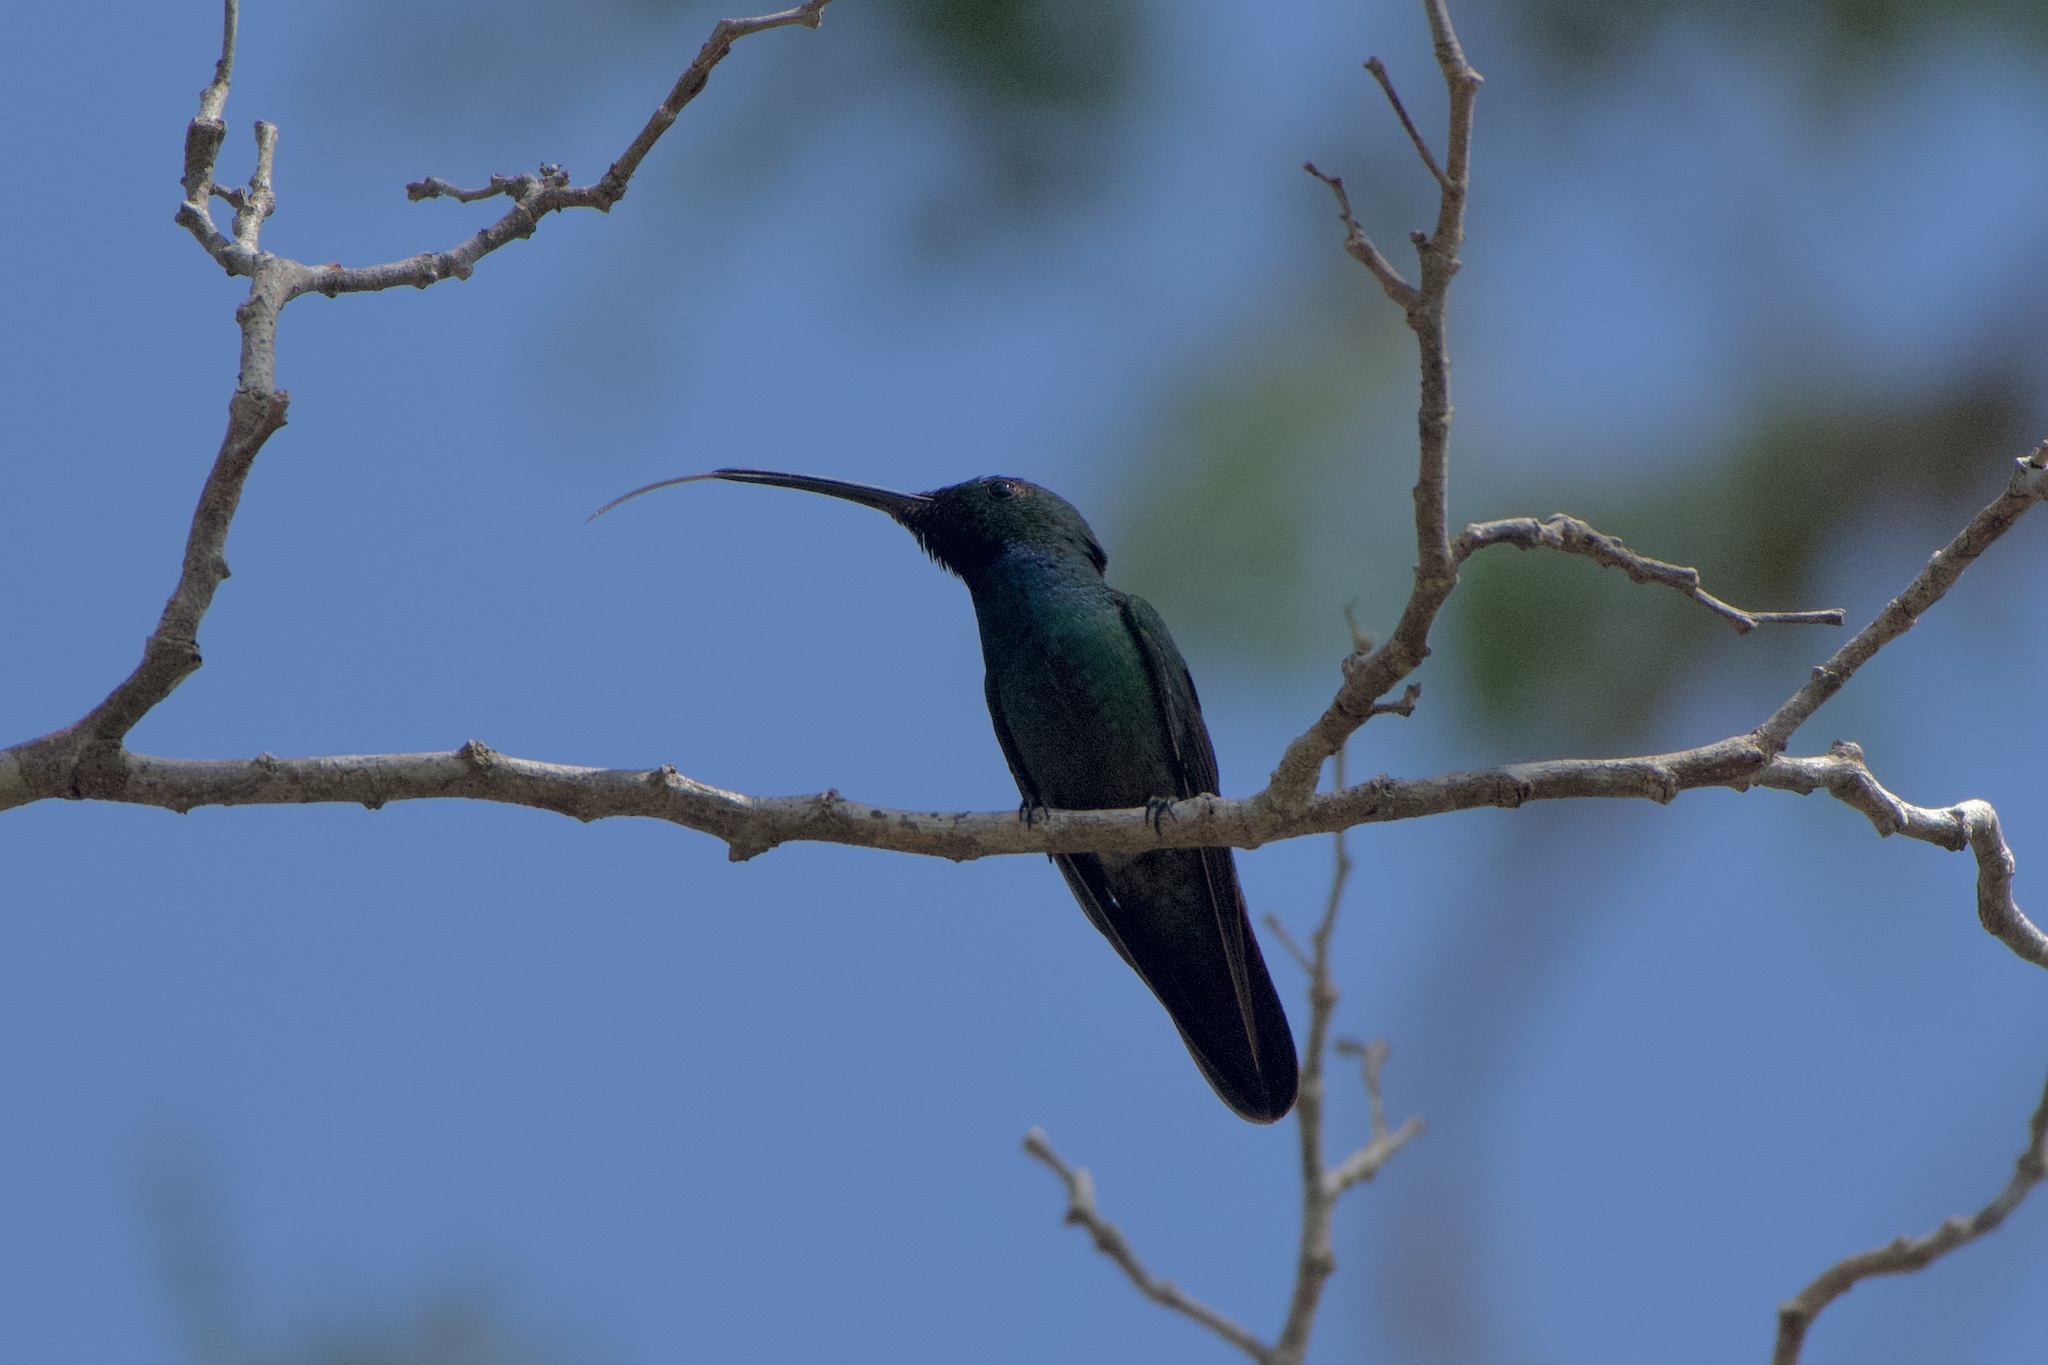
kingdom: Animalia
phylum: Chordata
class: Aves
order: Apodiformes
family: Trochilidae
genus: Anthracothorax
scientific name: Anthracothorax prevostii
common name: Green-breasted mango
